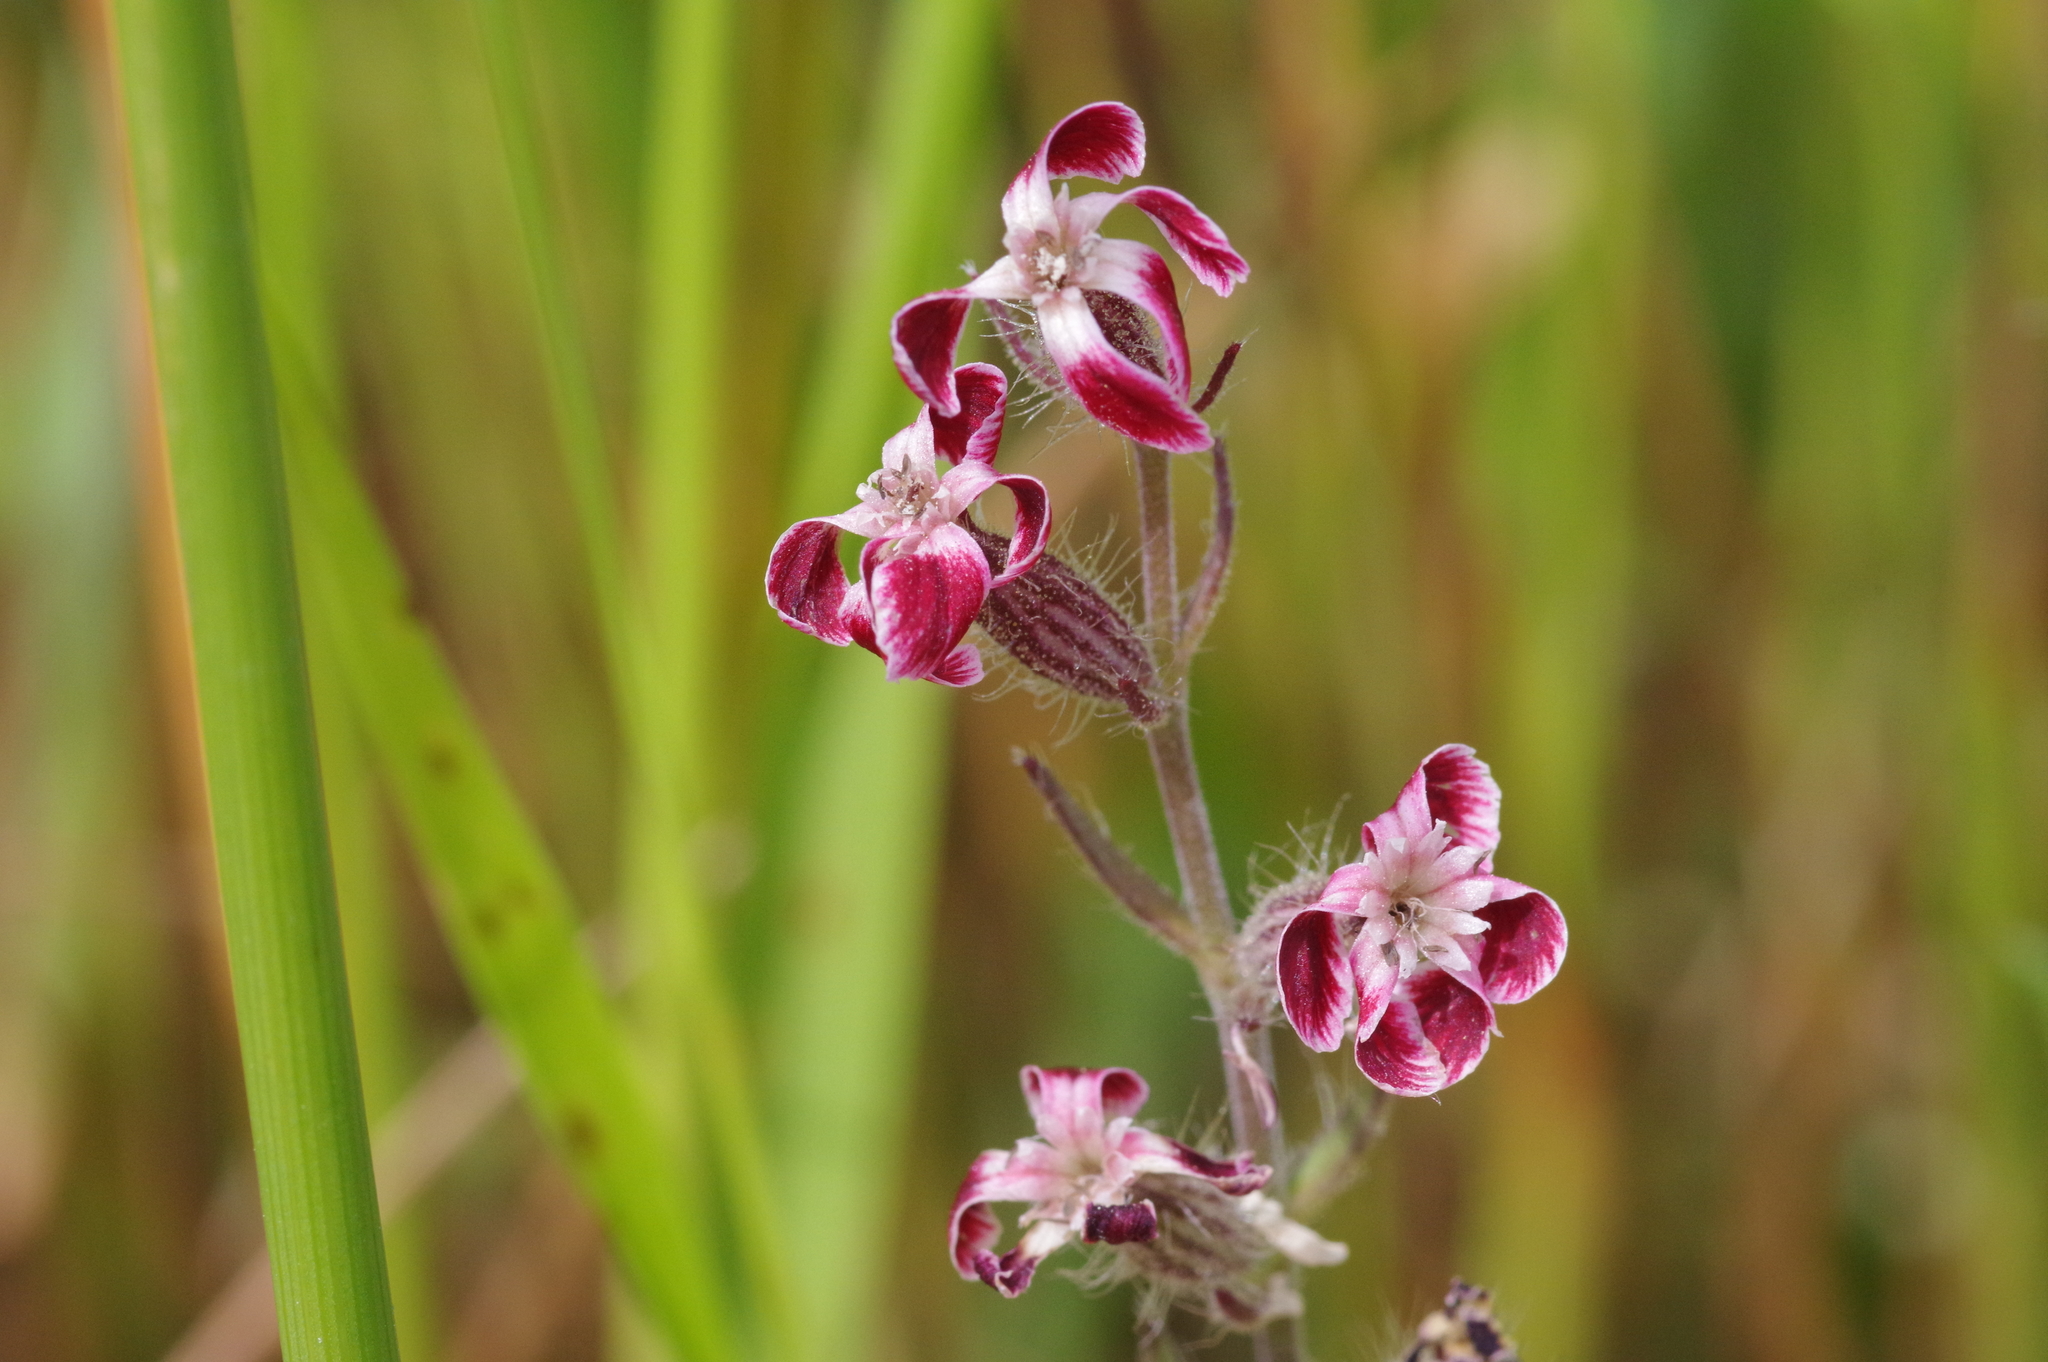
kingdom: Plantae
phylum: Tracheophyta
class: Magnoliopsida
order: Caryophyllales
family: Caryophyllaceae
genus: Silene
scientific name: Silene gallica
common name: Small-flowered catchfly
